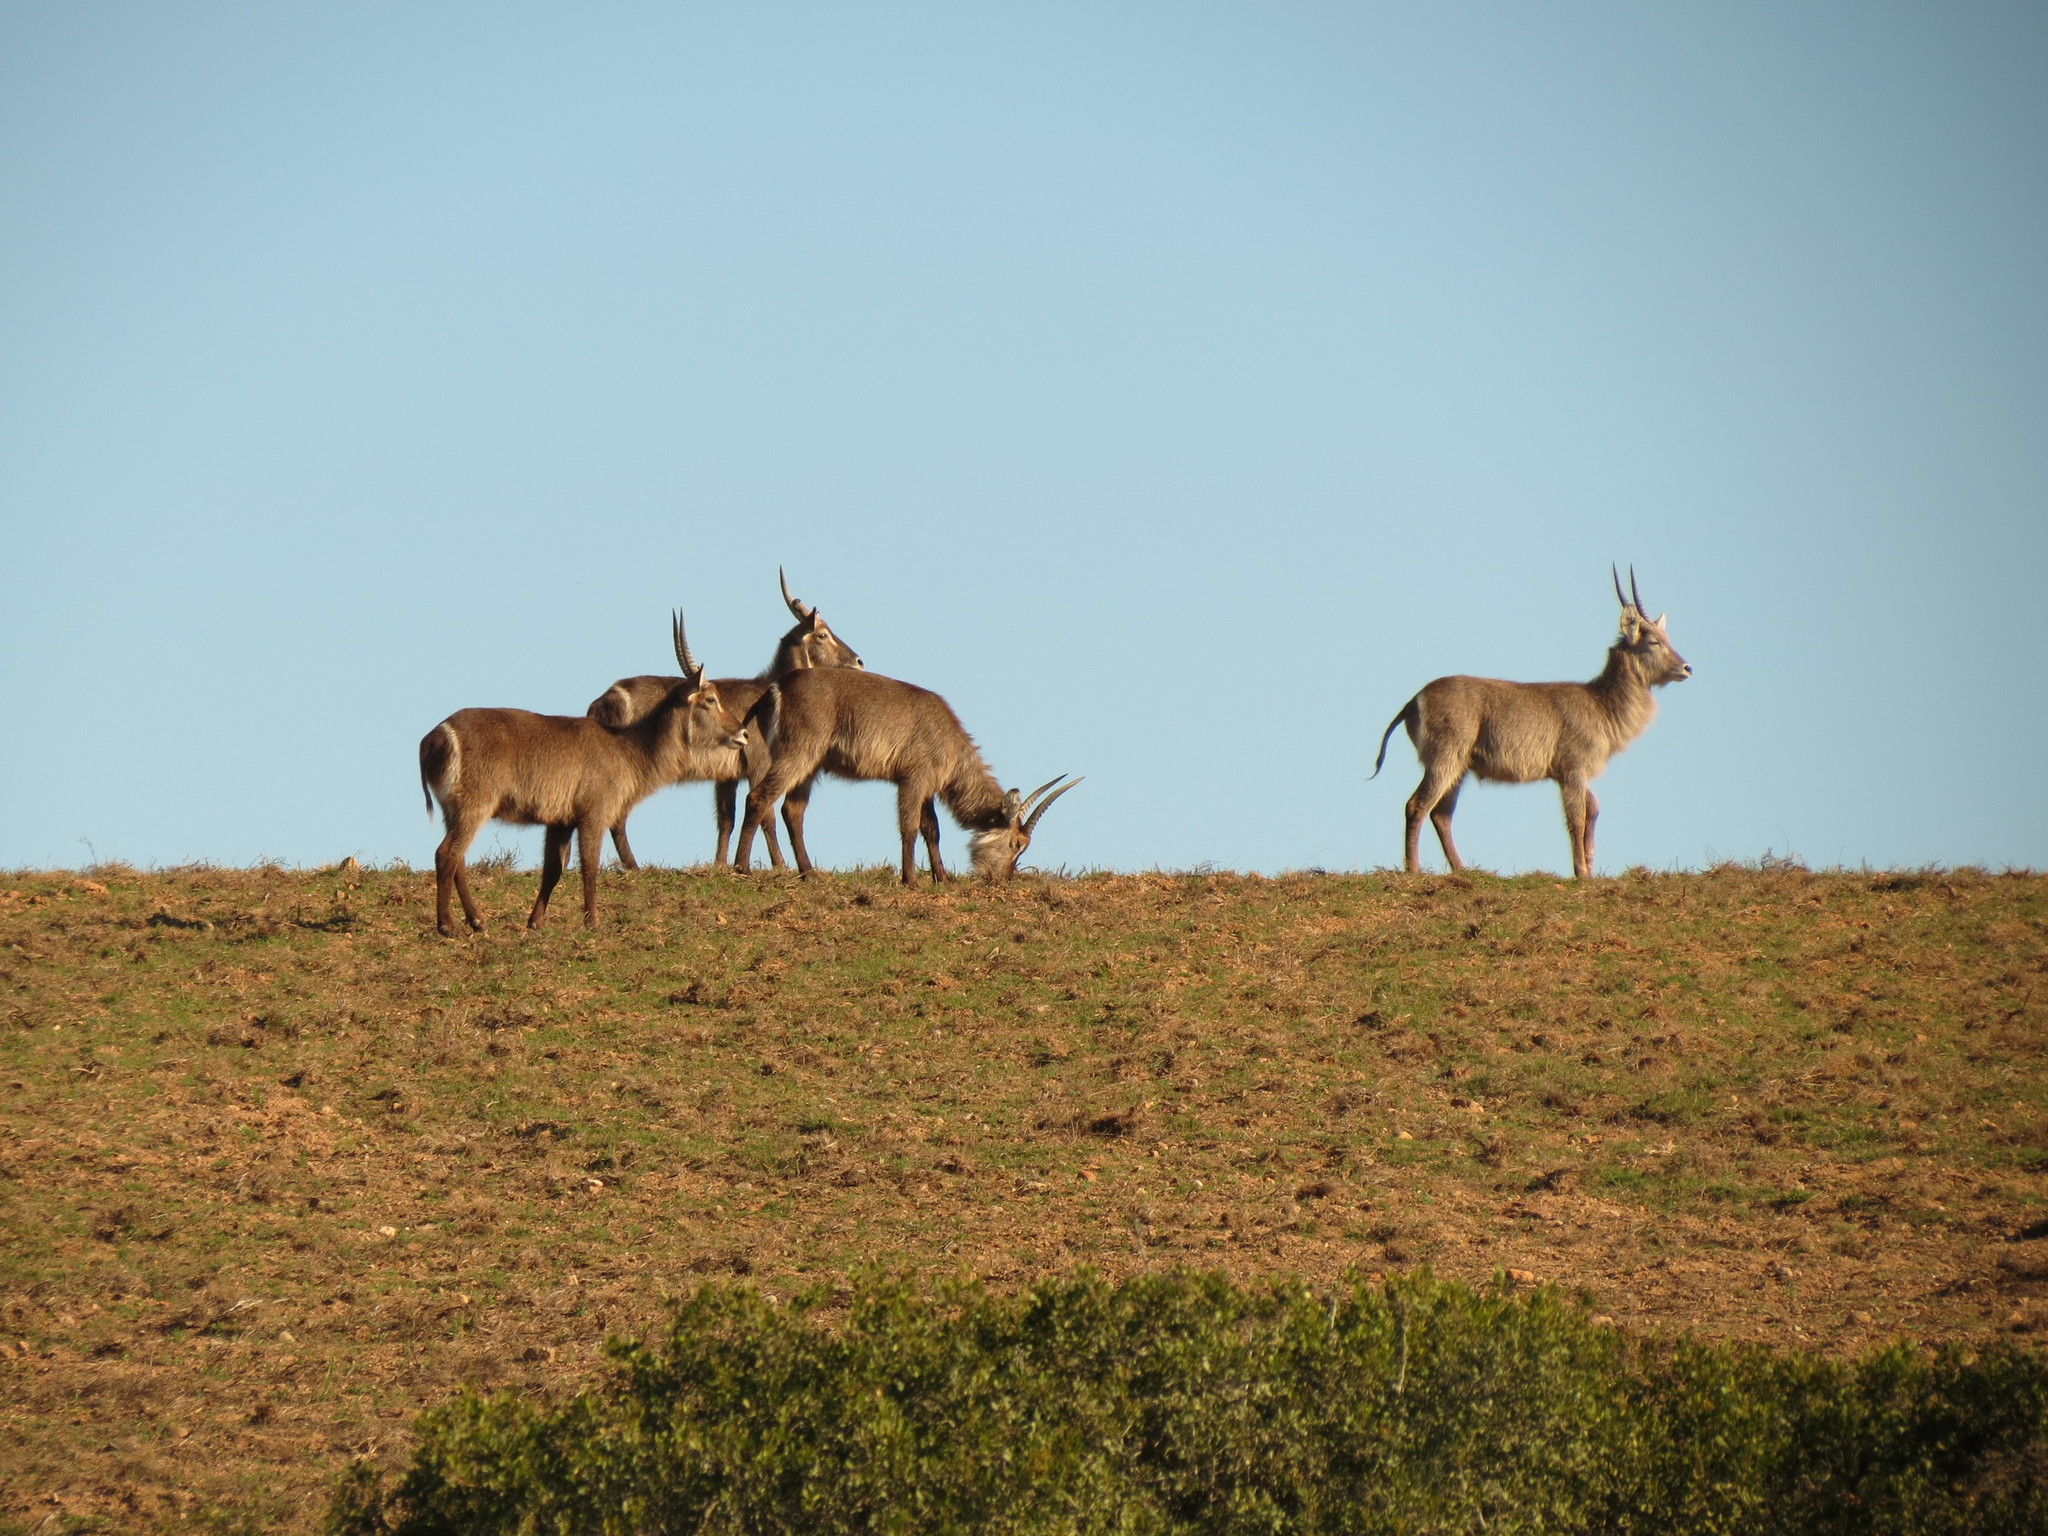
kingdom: Animalia
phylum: Chordata
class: Mammalia
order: Artiodactyla
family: Bovidae
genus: Kobus
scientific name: Kobus ellipsiprymnus
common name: Waterbuck
